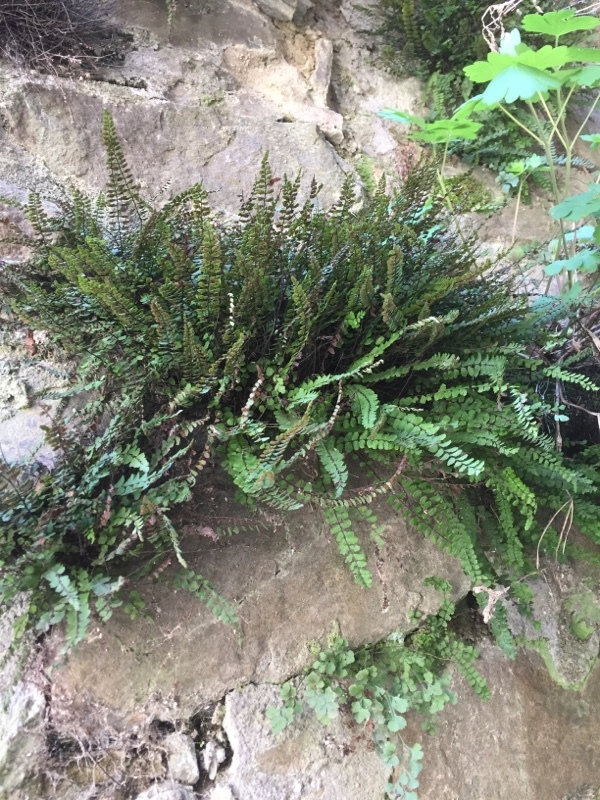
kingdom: Plantae
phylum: Tracheophyta
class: Polypodiopsida
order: Polypodiales
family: Aspleniaceae
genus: Asplenium
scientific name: Asplenium trichomanes
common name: Maidenhair spleenwort
